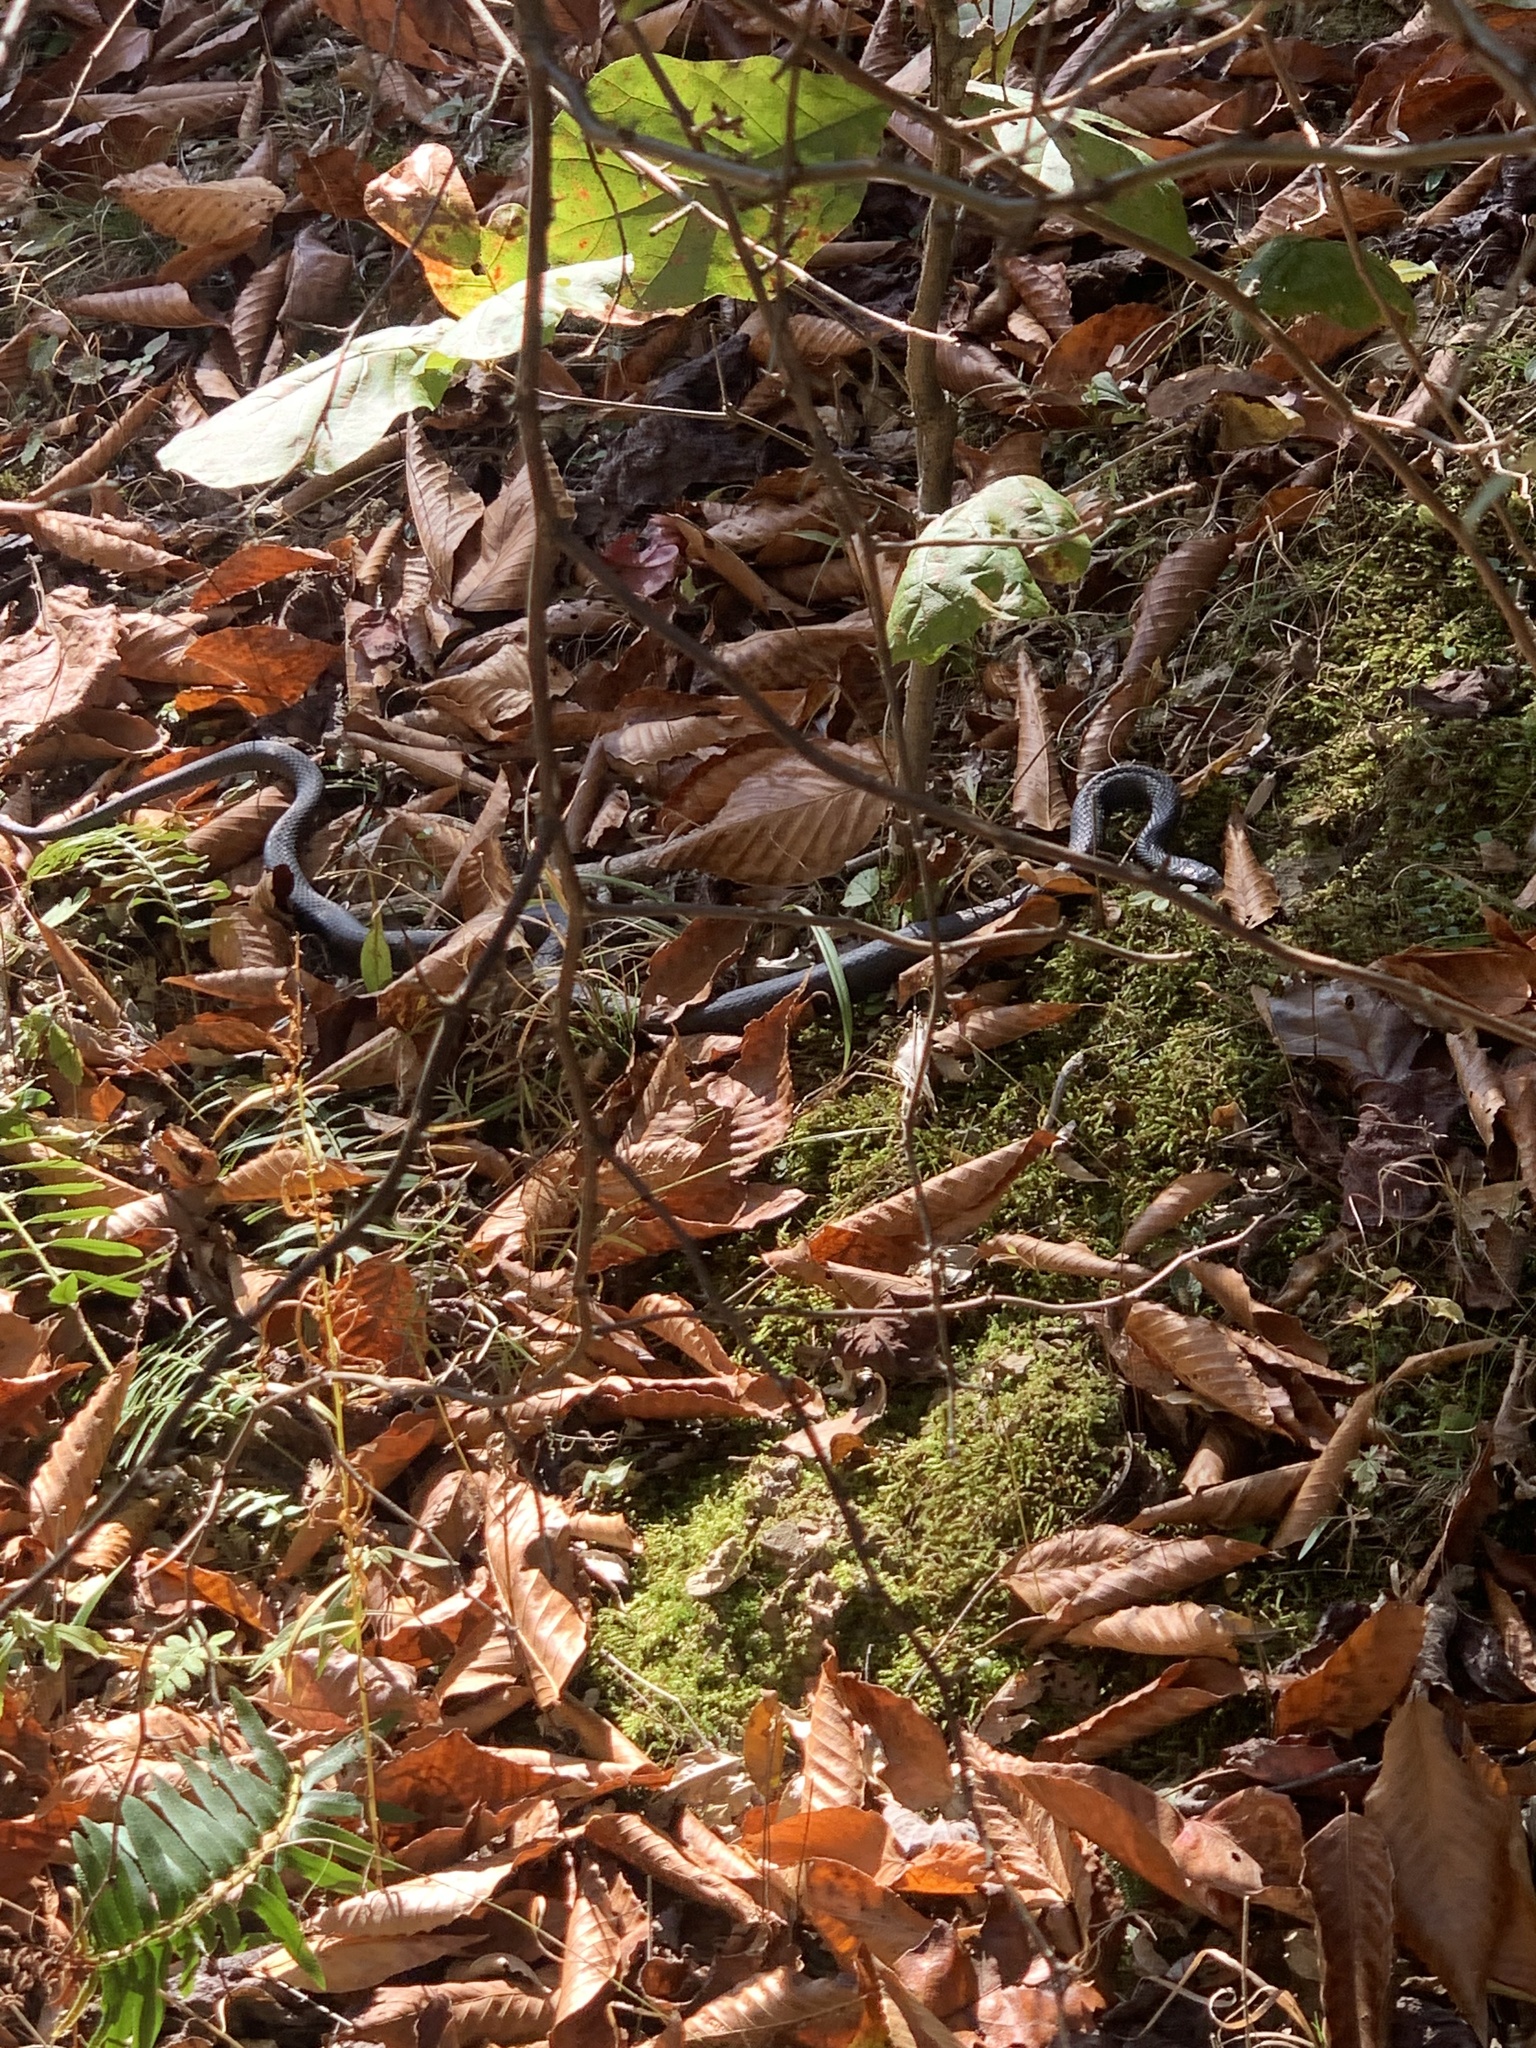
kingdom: Animalia
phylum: Chordata
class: Squamata
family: Colubridae
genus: Coluber
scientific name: Coluber constrictor
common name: Eastern racer
